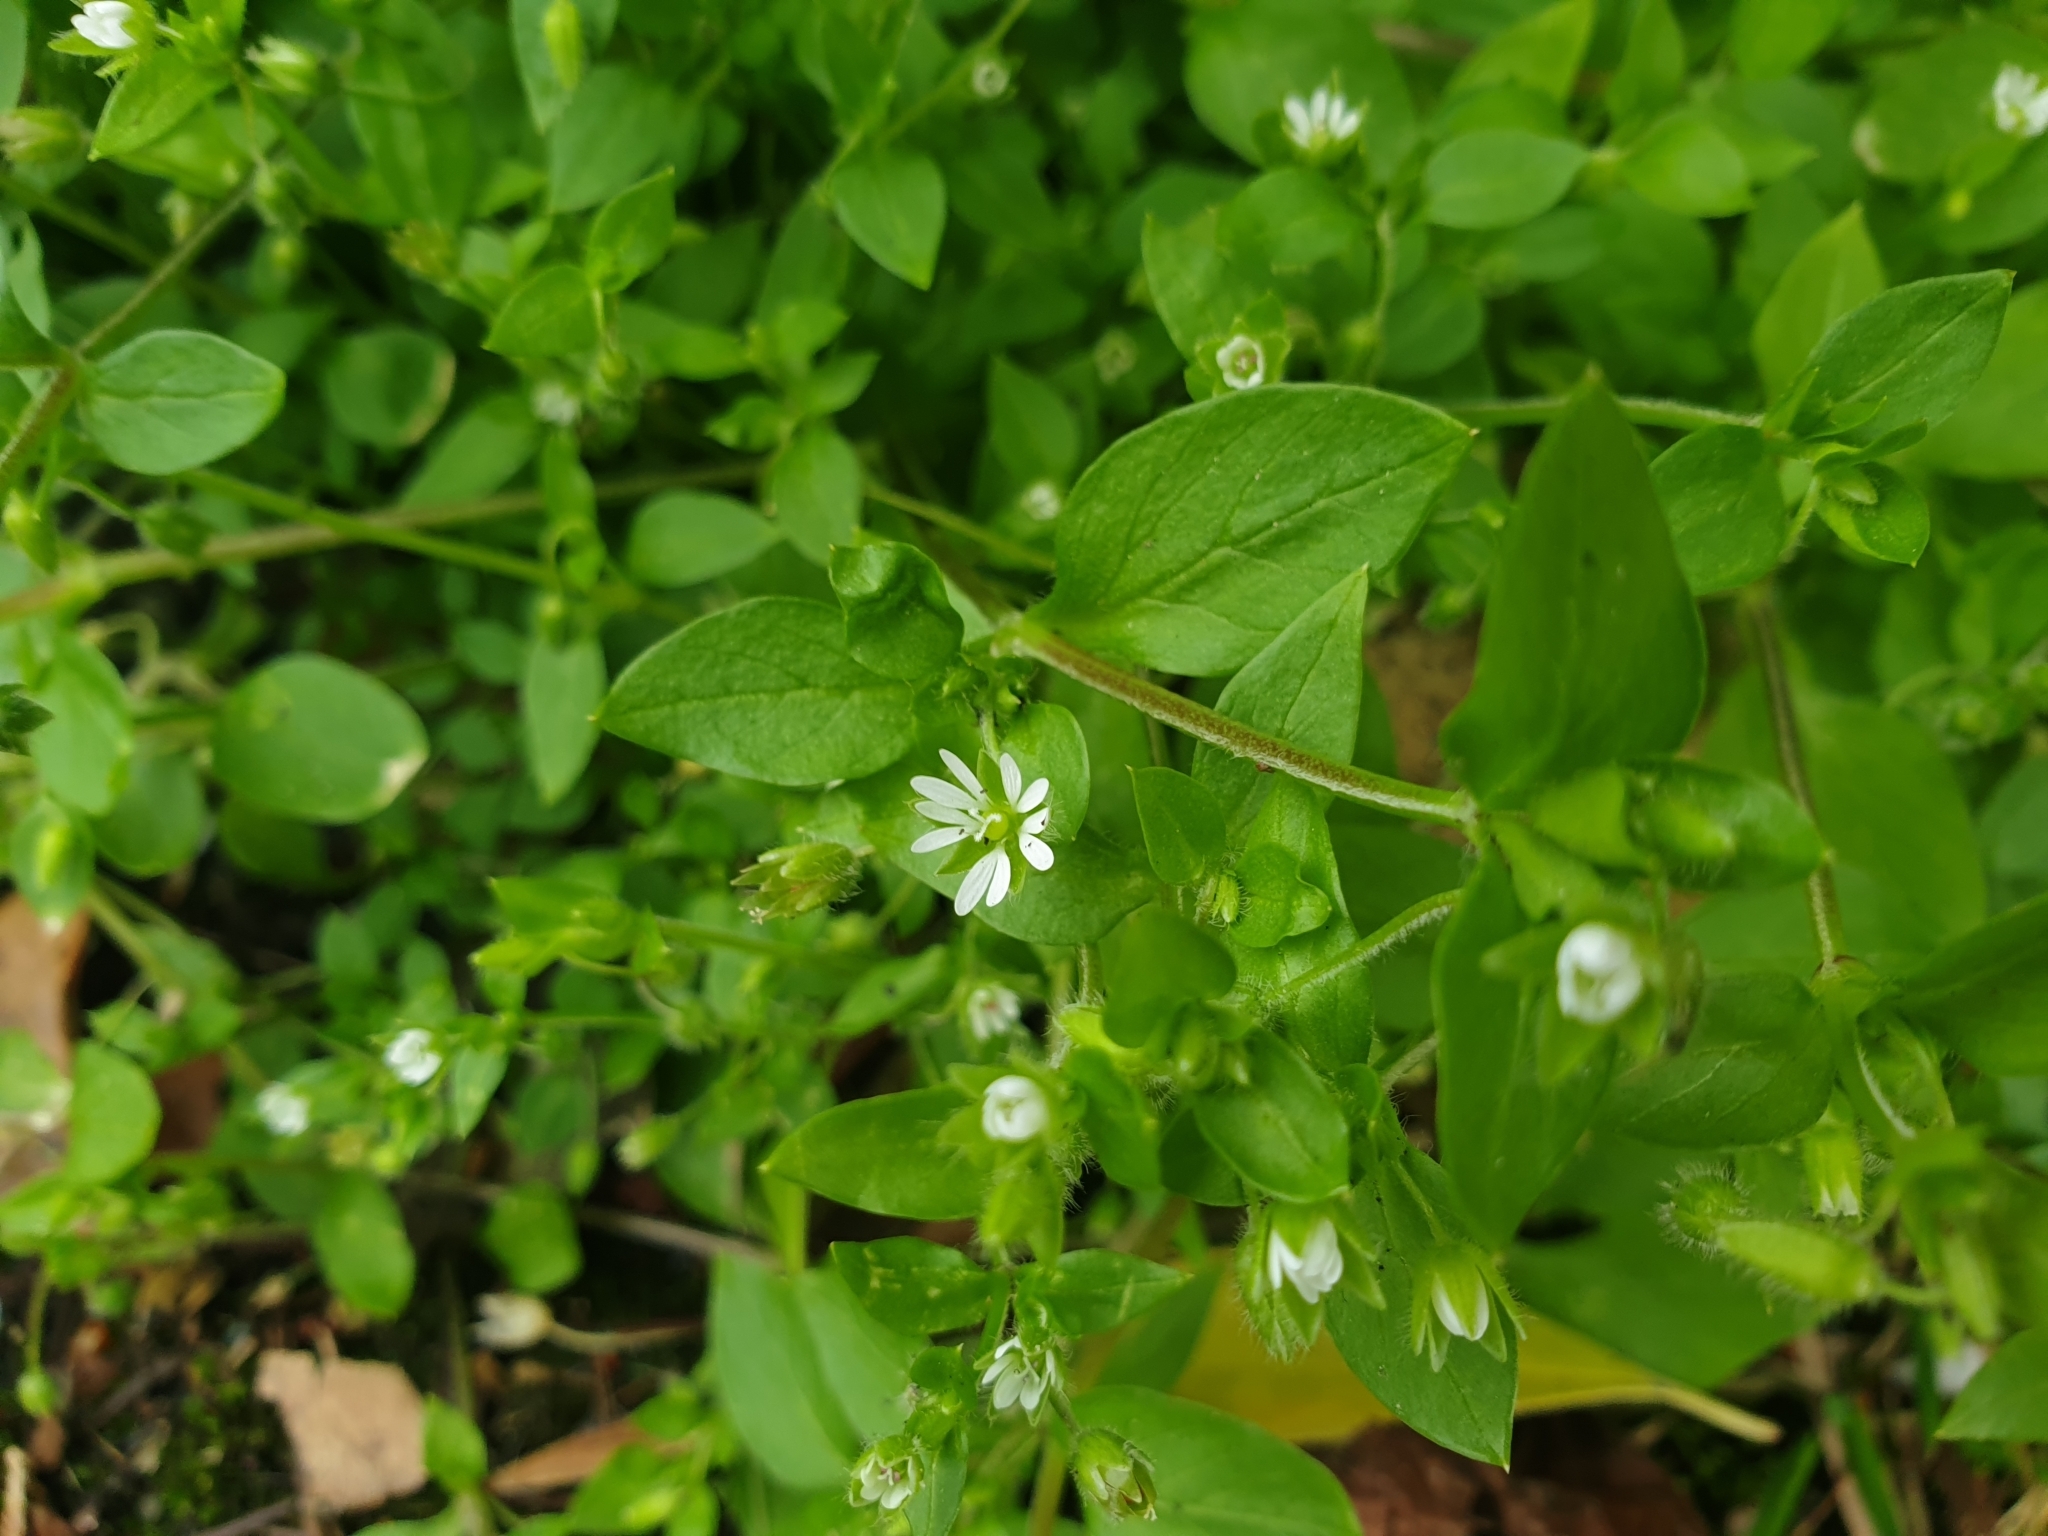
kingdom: Plantae
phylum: Tracheophyta
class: Magnoliopsida
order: Caryophyllales
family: Caryophyllaceae
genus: Stellaria
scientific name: Stellaria media
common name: Common chickweed
